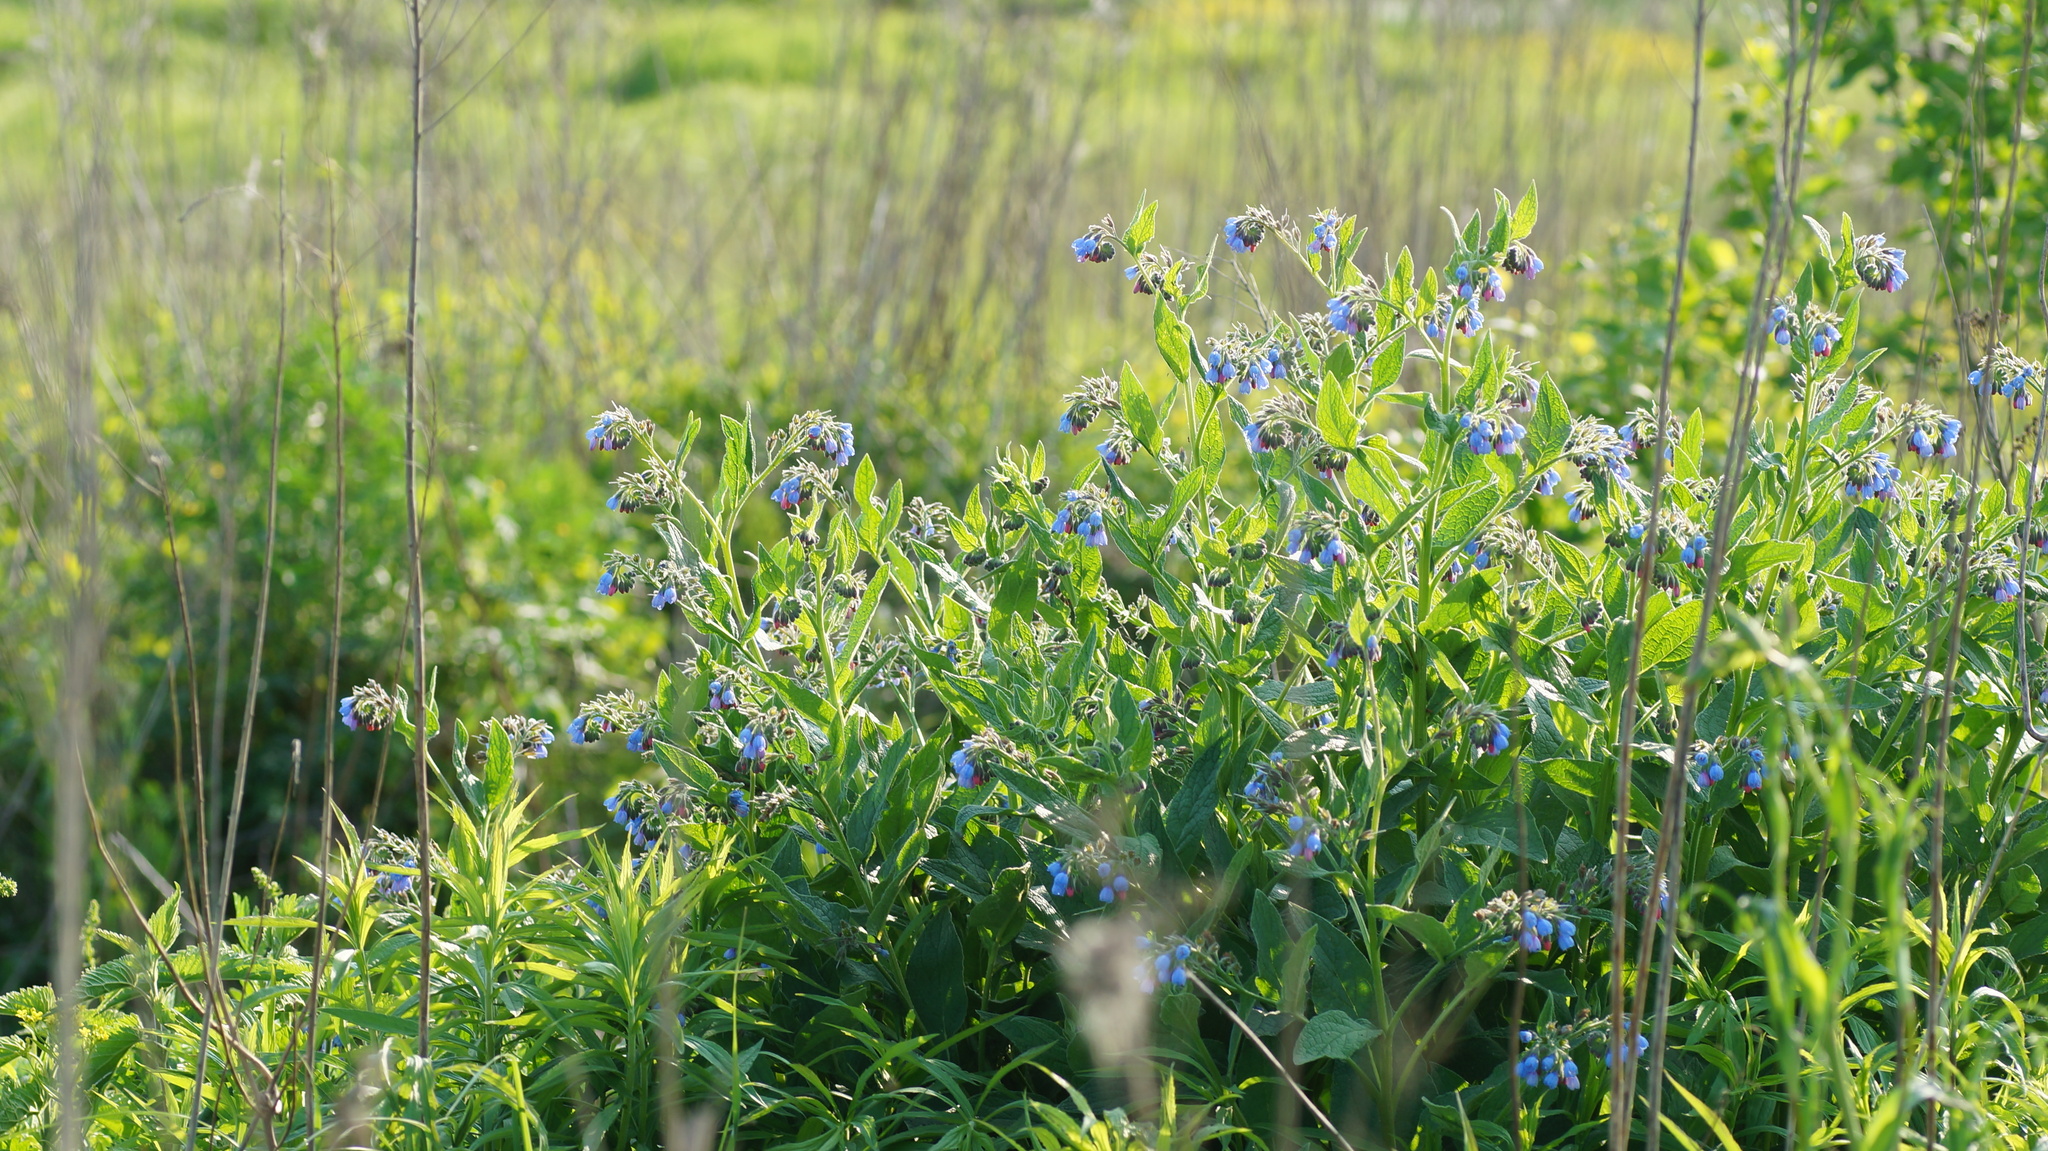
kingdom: Plantae
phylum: Tracheophyta
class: Magnoliopsida
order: Boraginales
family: Boraginaceae
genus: Symphytum
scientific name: Symphytum caucasicum
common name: Caucasian comfrey
